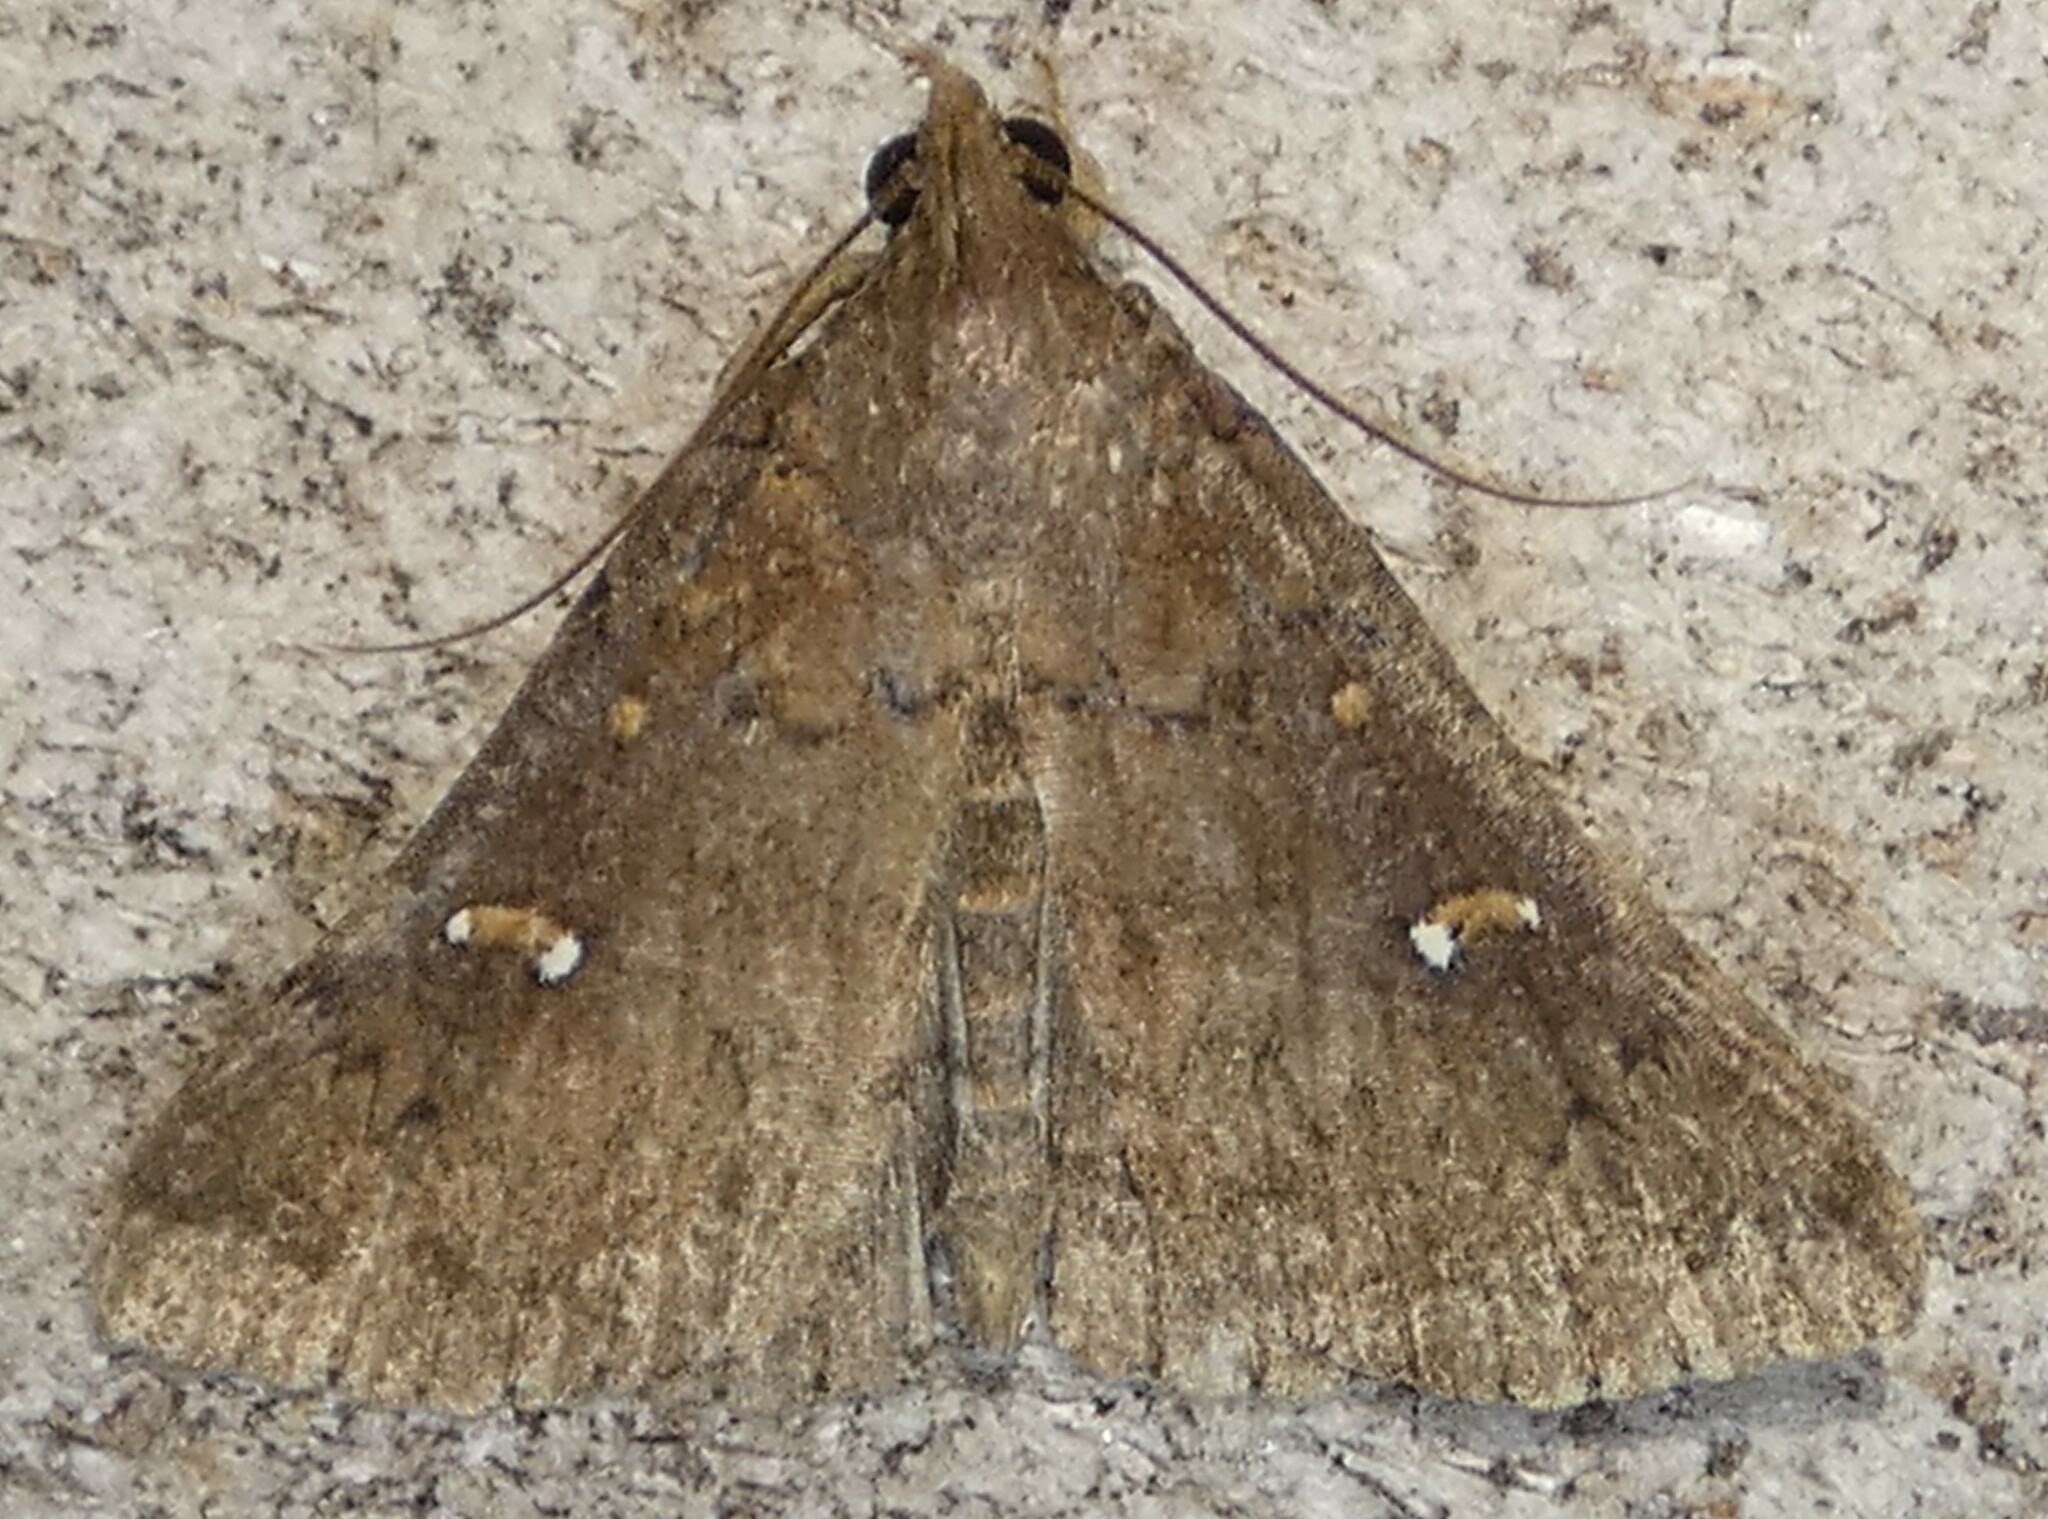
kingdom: Animalia
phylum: Arthropoda
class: Insecta
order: Lepidoptera
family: Erebidae
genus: Hypenula
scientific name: Hypenula cacuminalis
